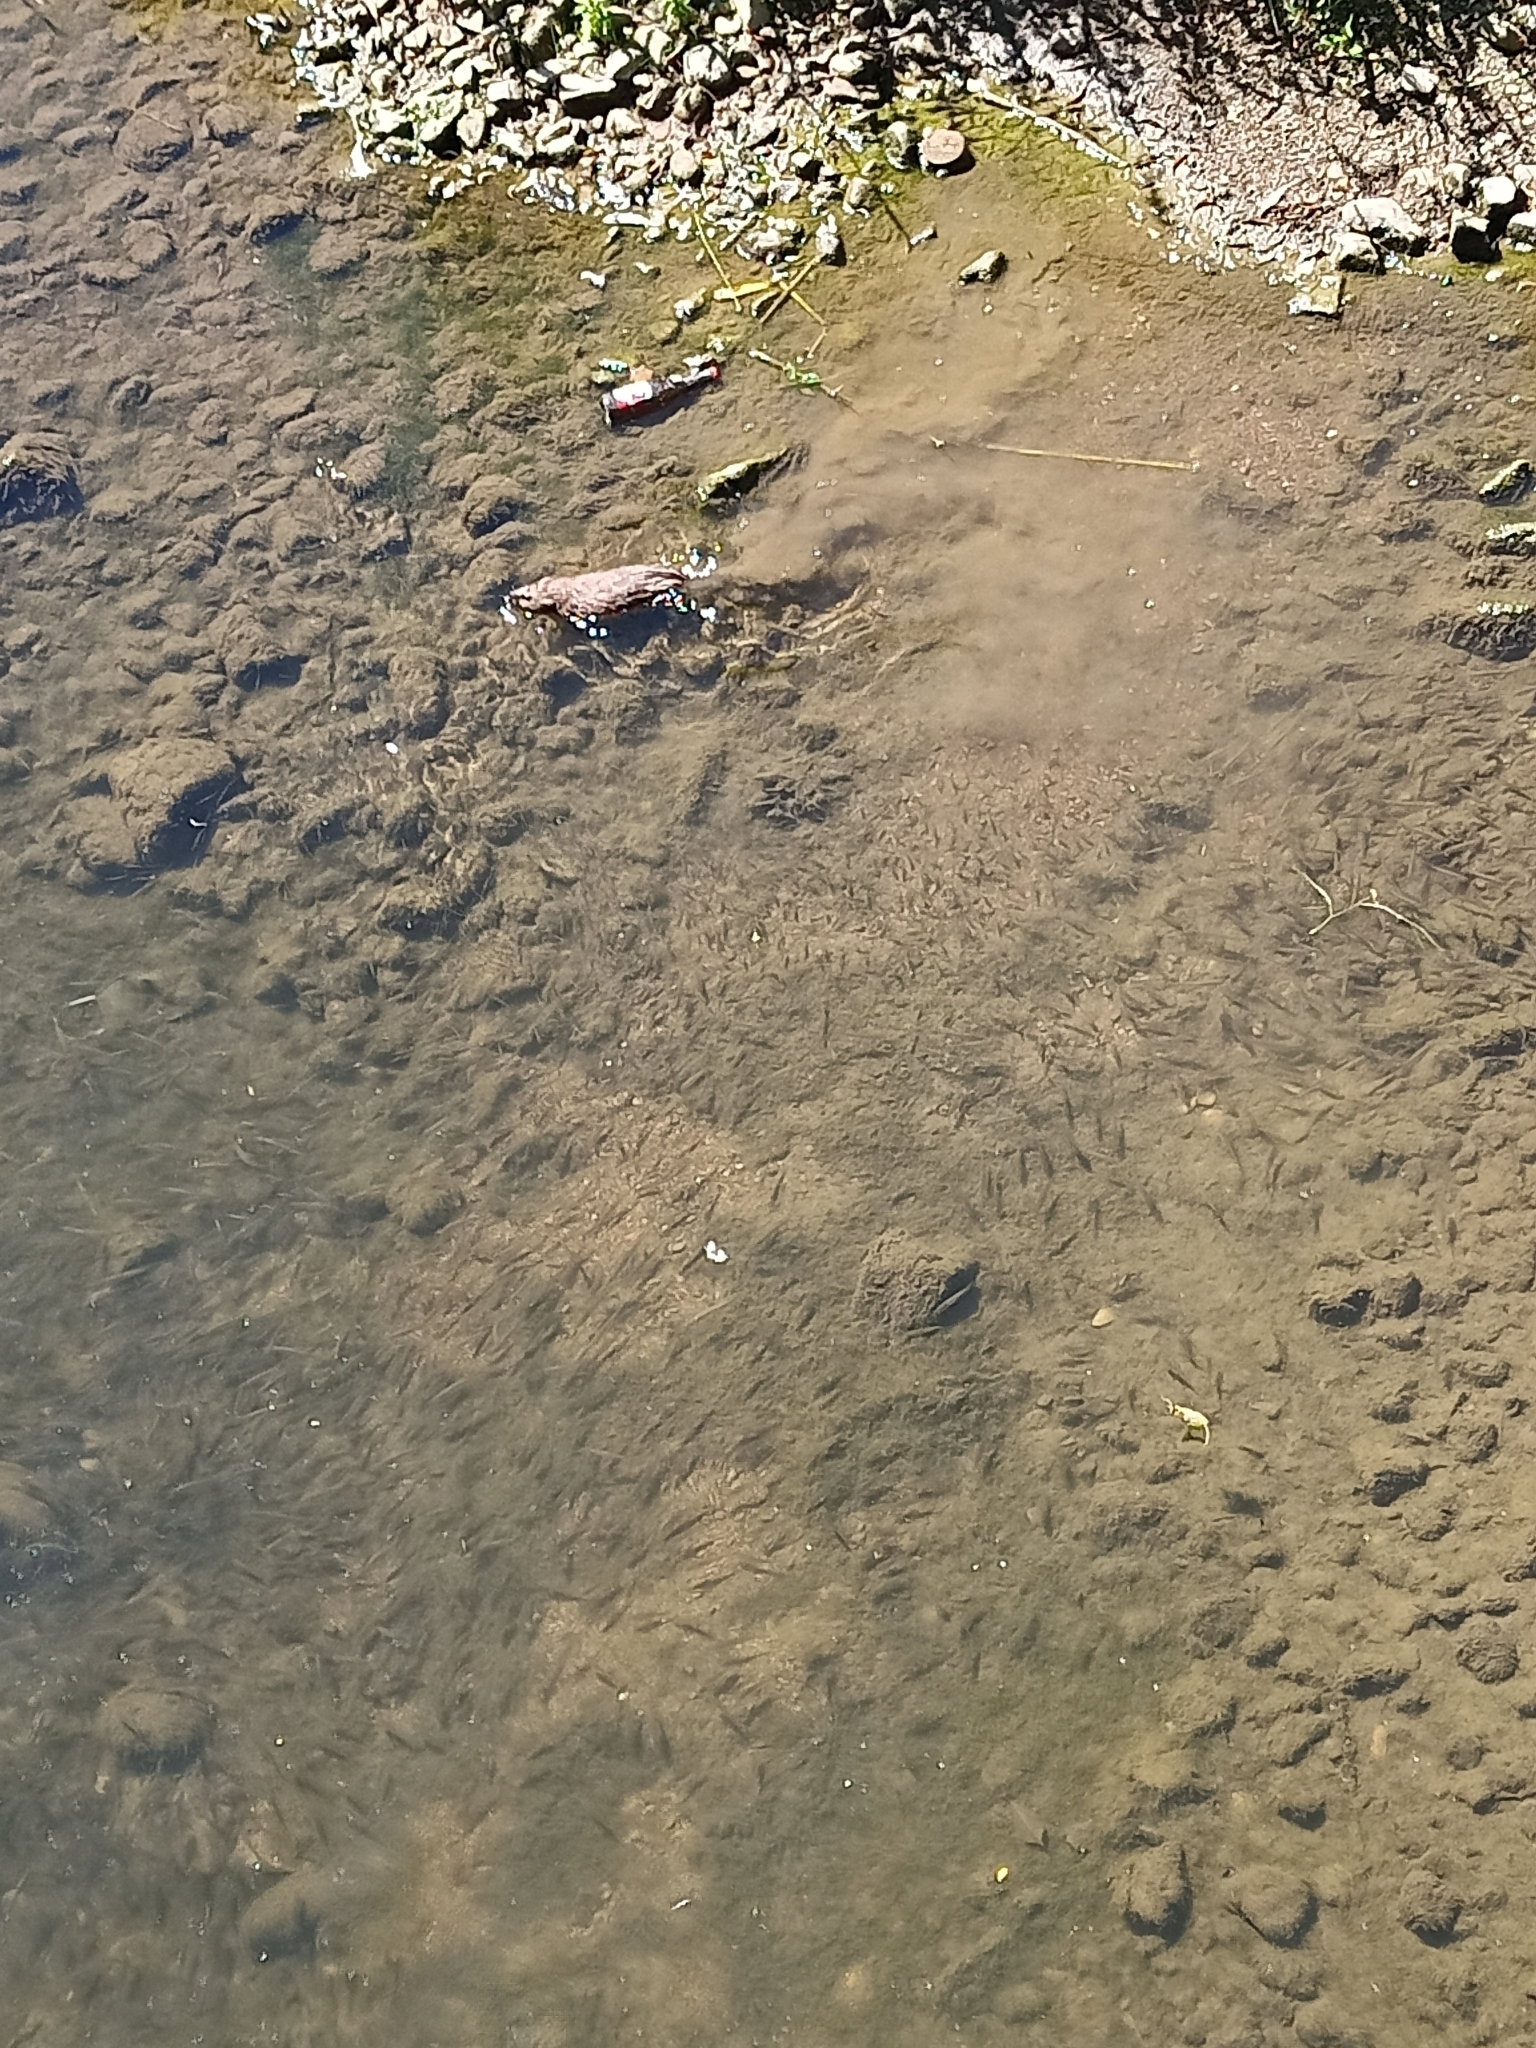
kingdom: Animalia
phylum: Chordata
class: Mammalia
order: Rodentia
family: Cricetidae
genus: Ondatra
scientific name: Ondatra zibethicus
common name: Muskrat
